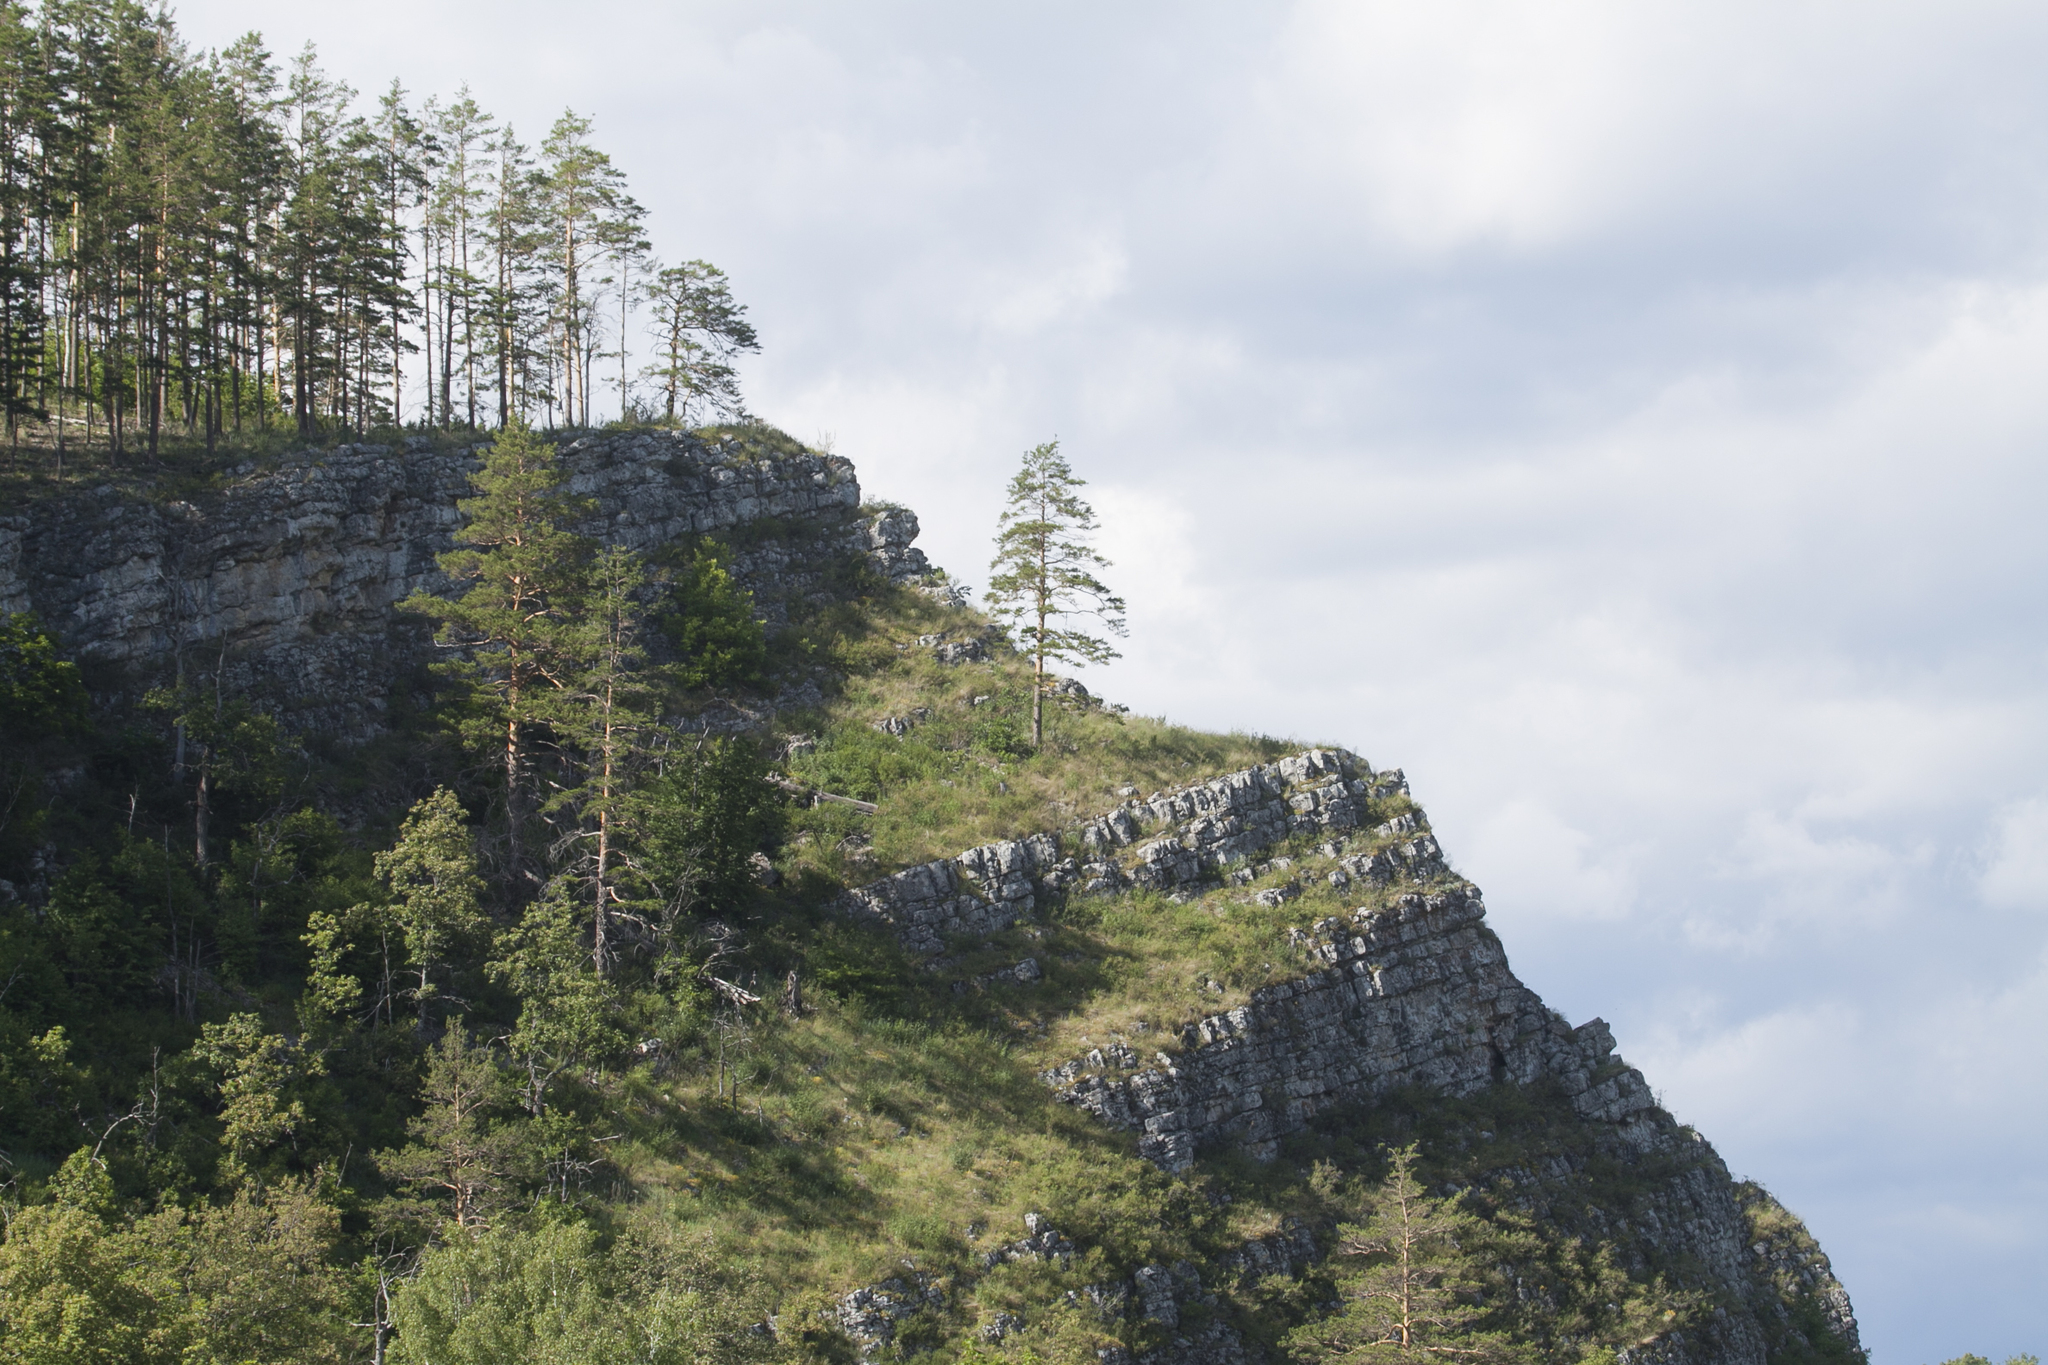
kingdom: Plantae
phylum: Tracheophyta
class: Pinopsida
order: Pinales
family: Pinaceae
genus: Pinus
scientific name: Pinus sylvestris
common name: Scots pine
